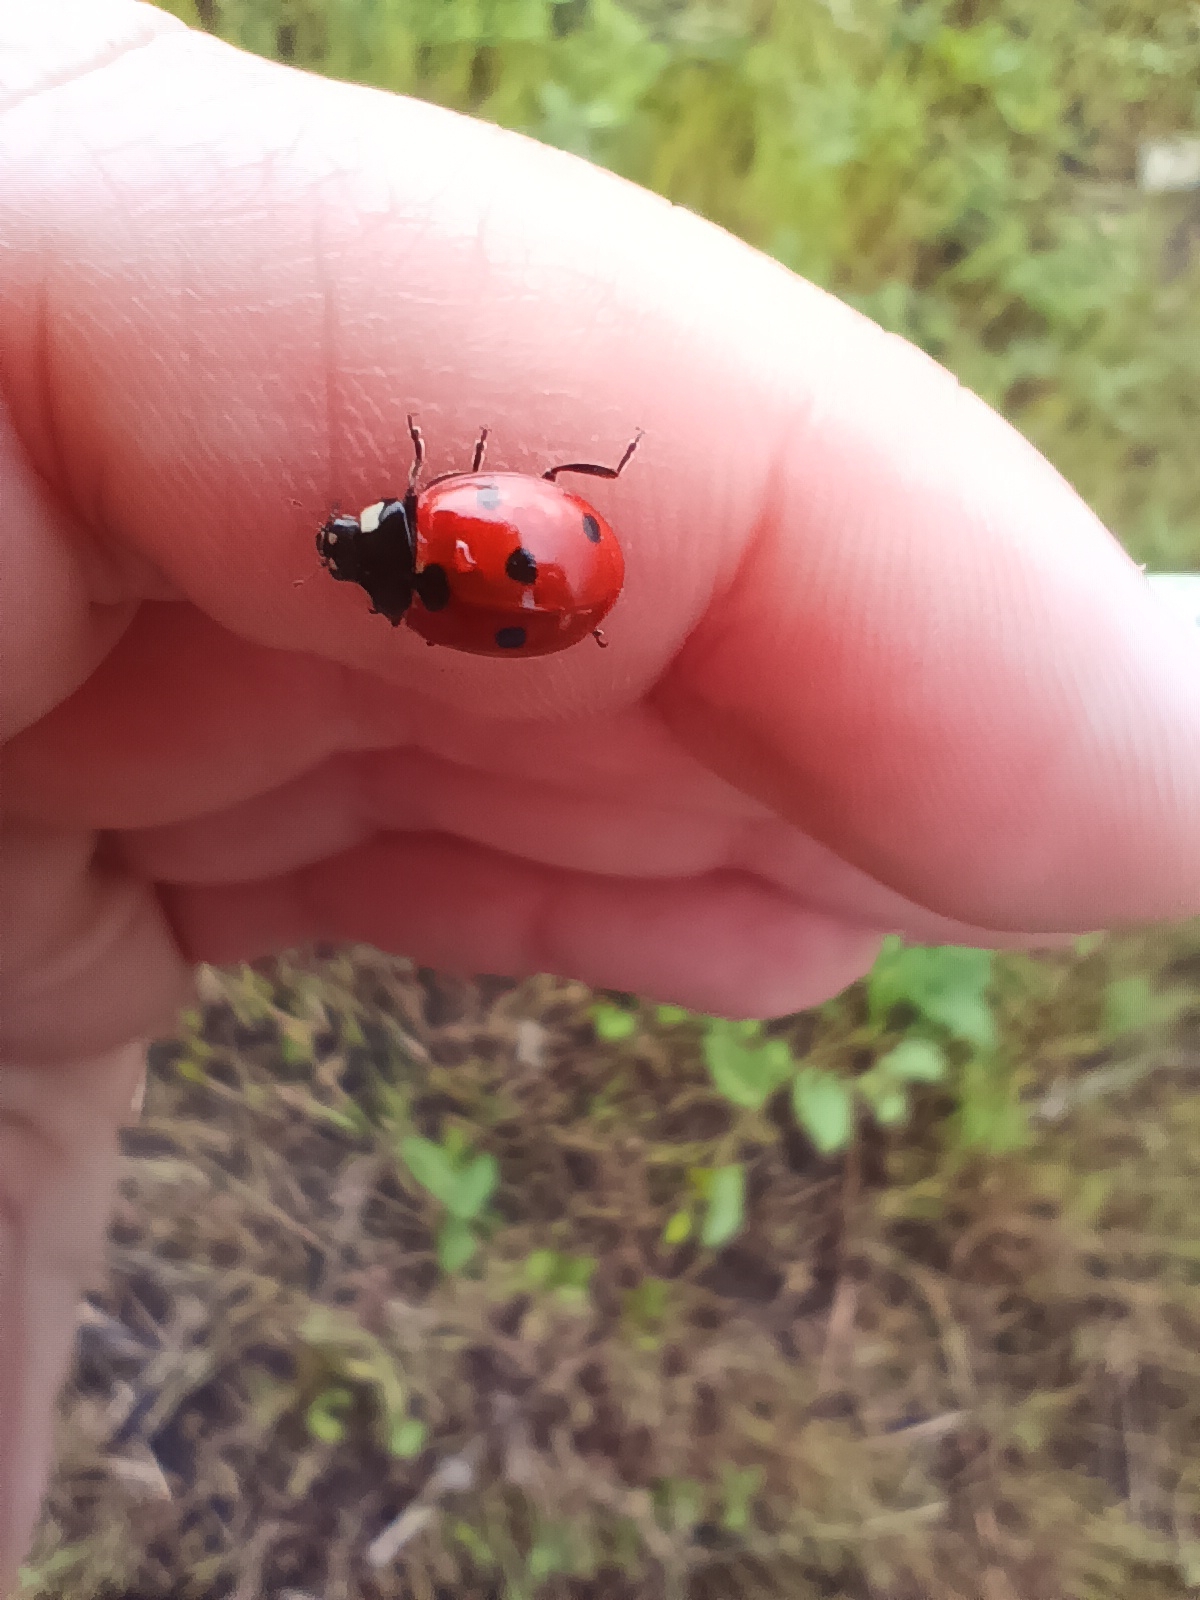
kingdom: Animalia
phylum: Arthropoda
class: Insecta
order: Coleoptera
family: Coccinellidae
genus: Coccinella
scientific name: Coccinella septempunctata
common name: Sevenspotted lady beetle
